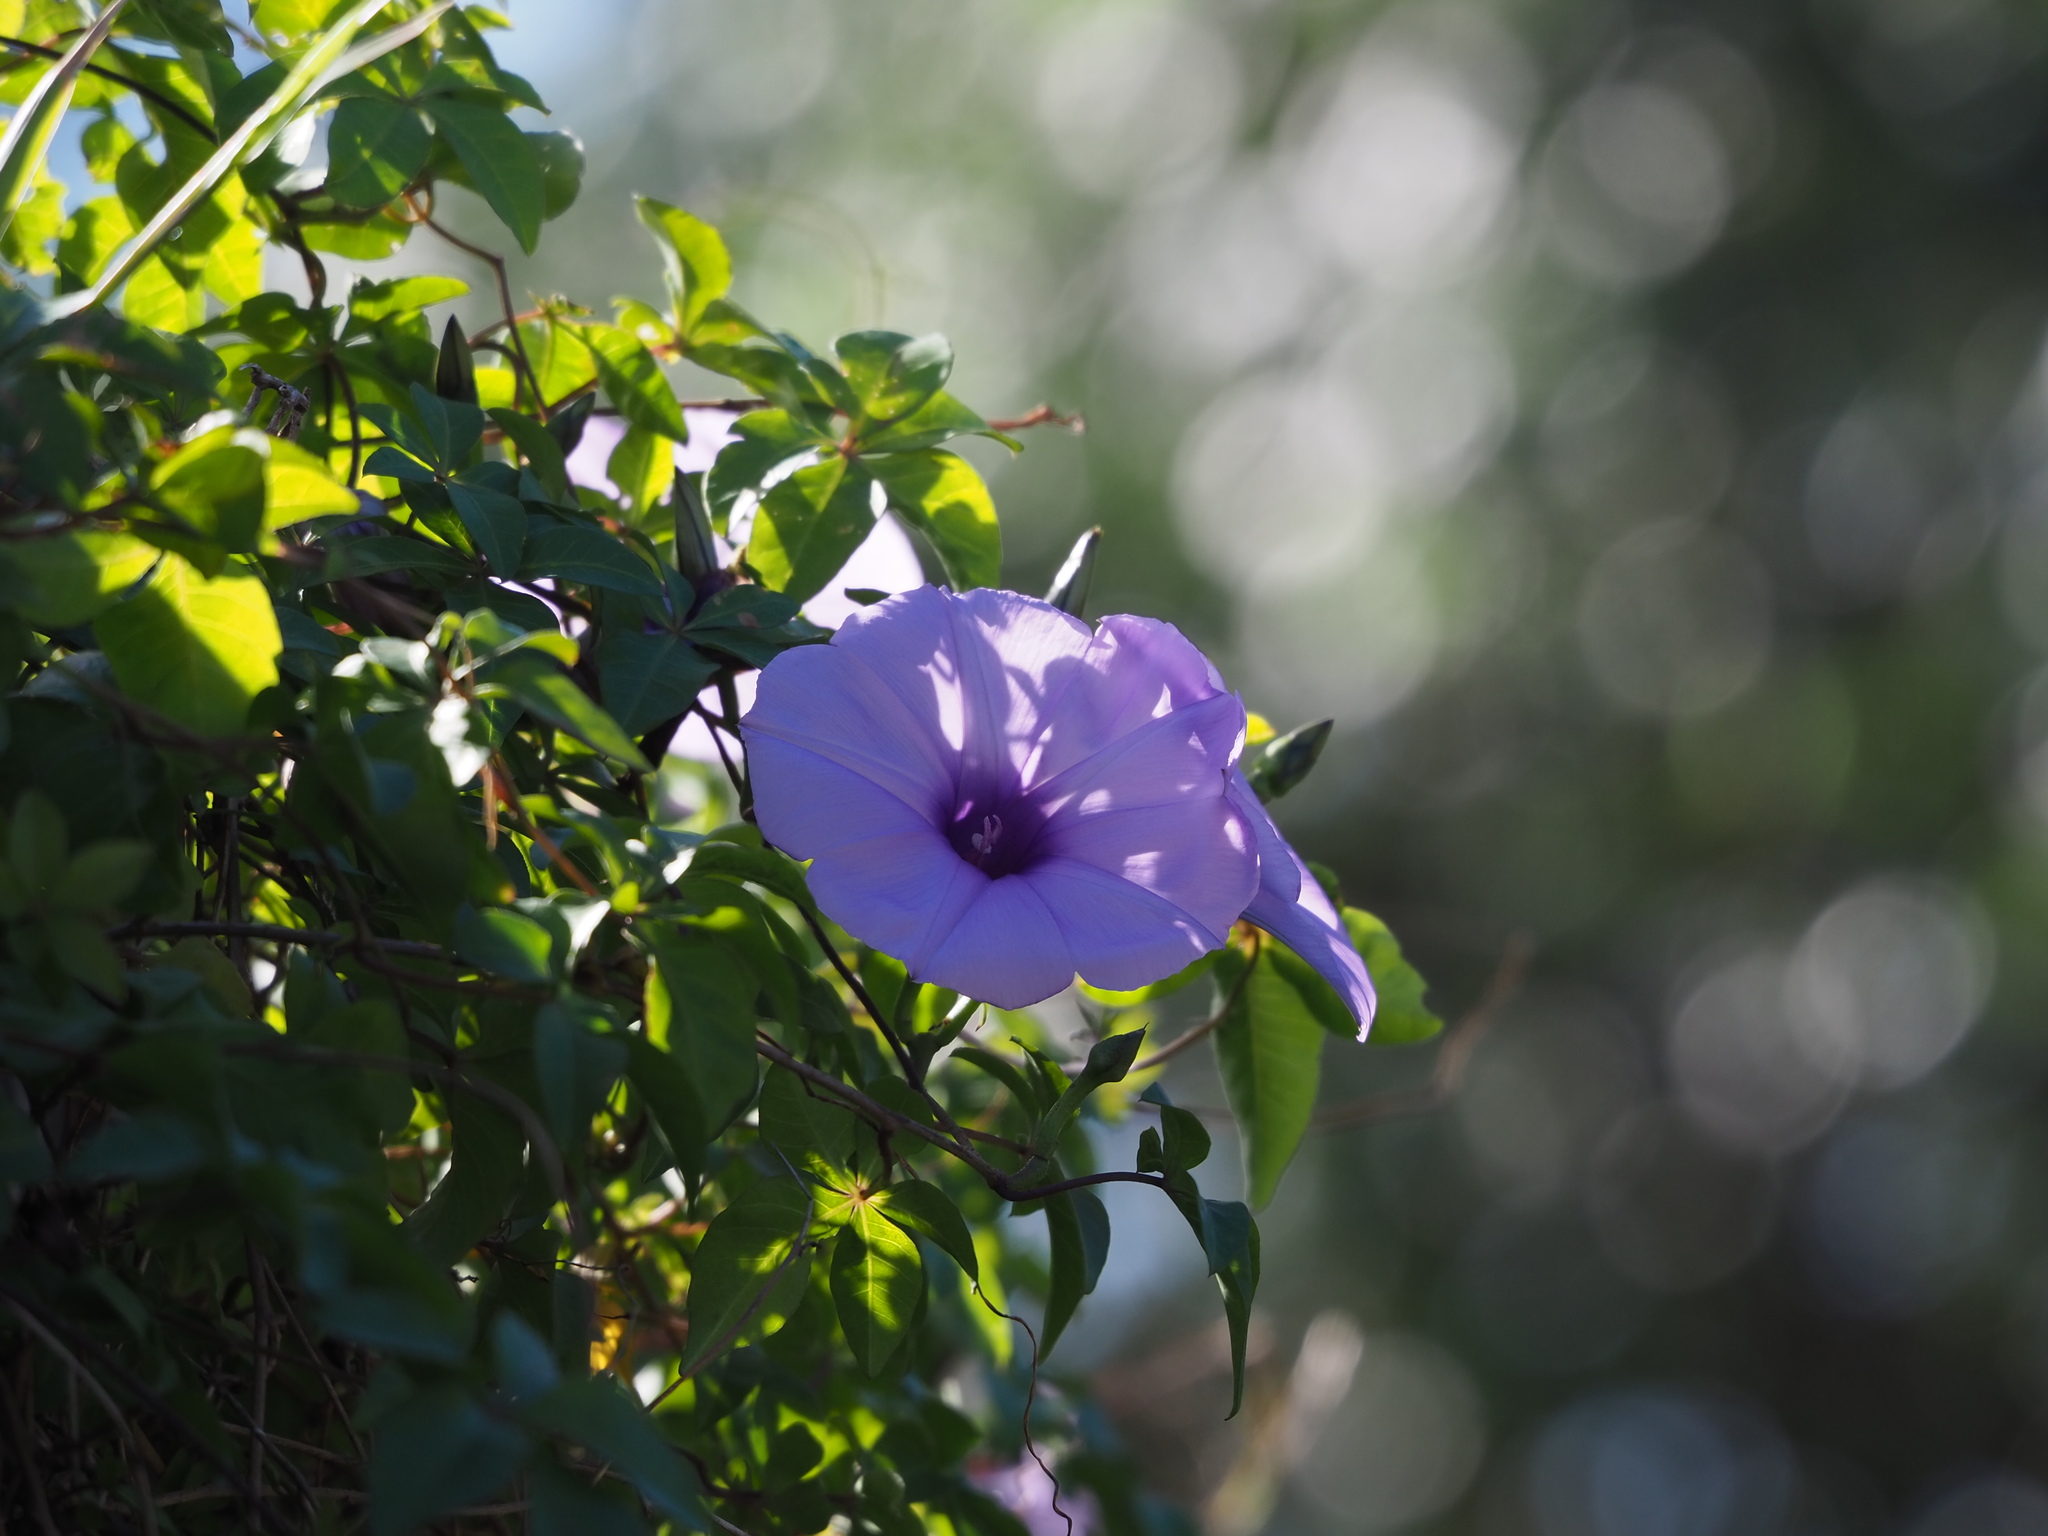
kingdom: Plantae
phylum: Tracheophyta
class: Magnoliopsida
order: Solanales
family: Convolvulaceae
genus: Ipomoea
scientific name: Ipomoea cairica
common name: Mile a minute vine
